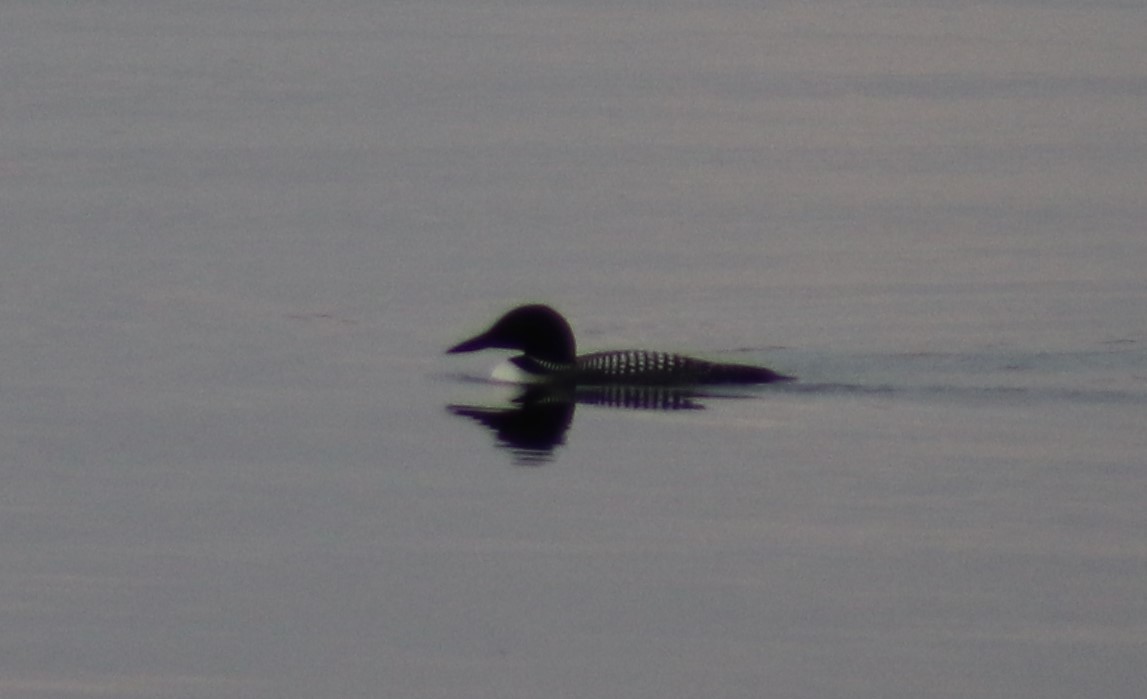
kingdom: Animalia
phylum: Chordata
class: Aves
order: Gaviiformes
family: Gaviidae
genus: Gavia
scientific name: Gavia immer
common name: Common loon
